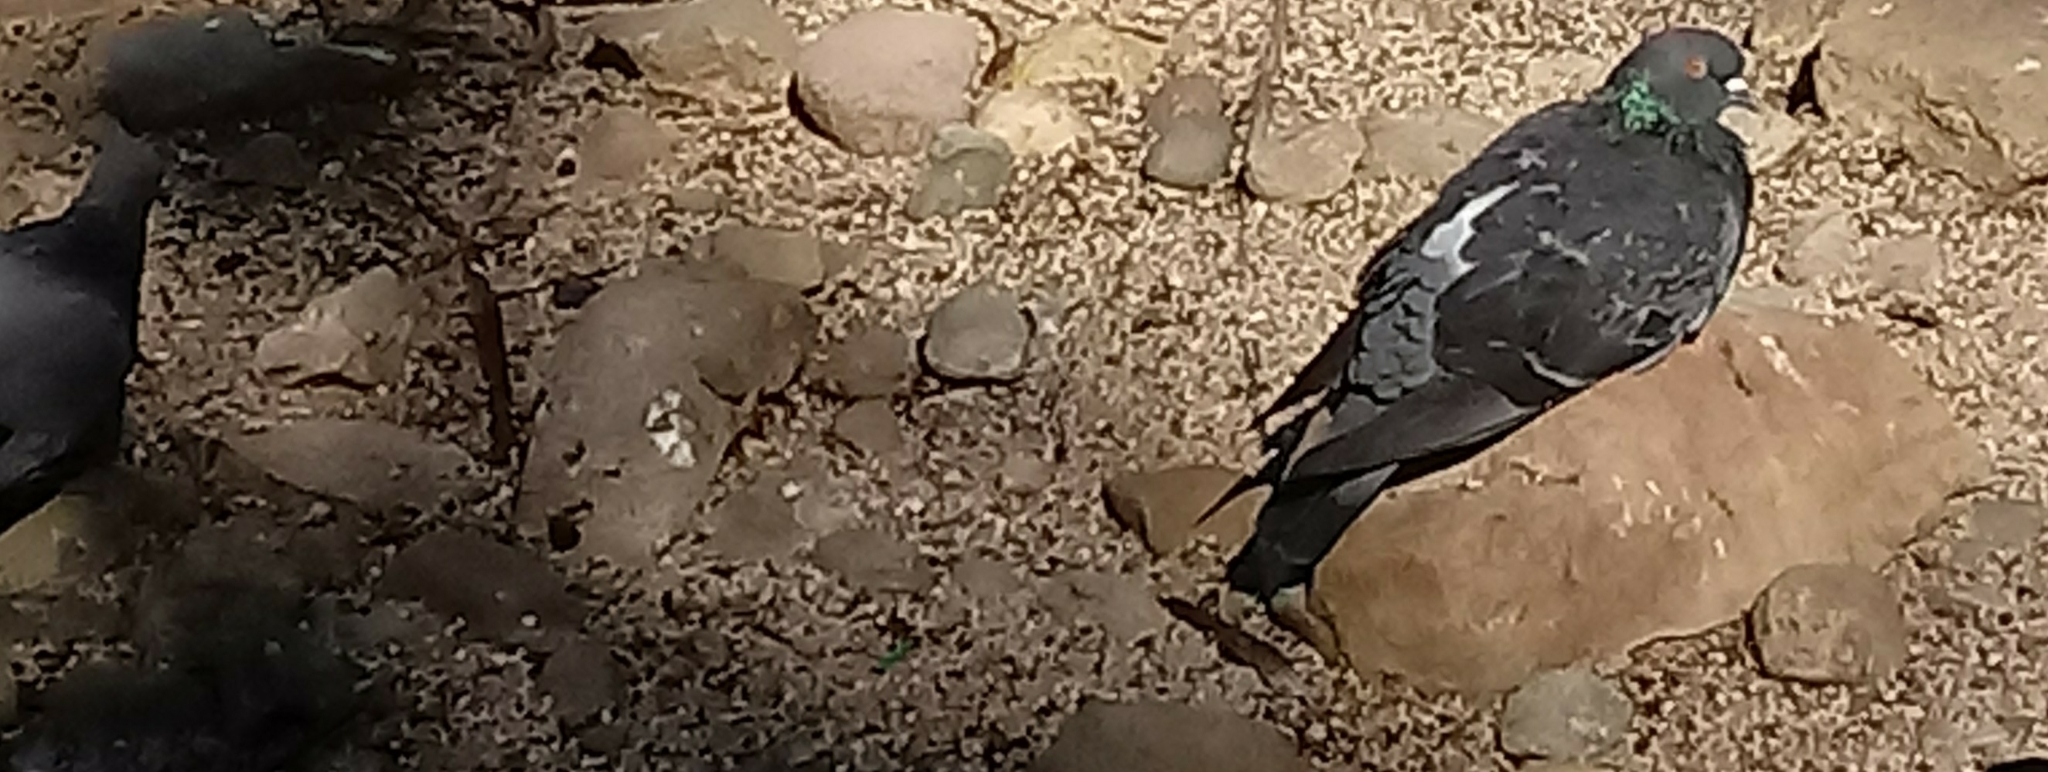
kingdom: Animalia
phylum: Chordata
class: Aves
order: Columbiformes
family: Columbidae
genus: Columba
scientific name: Columba livia
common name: Rock pigeon
